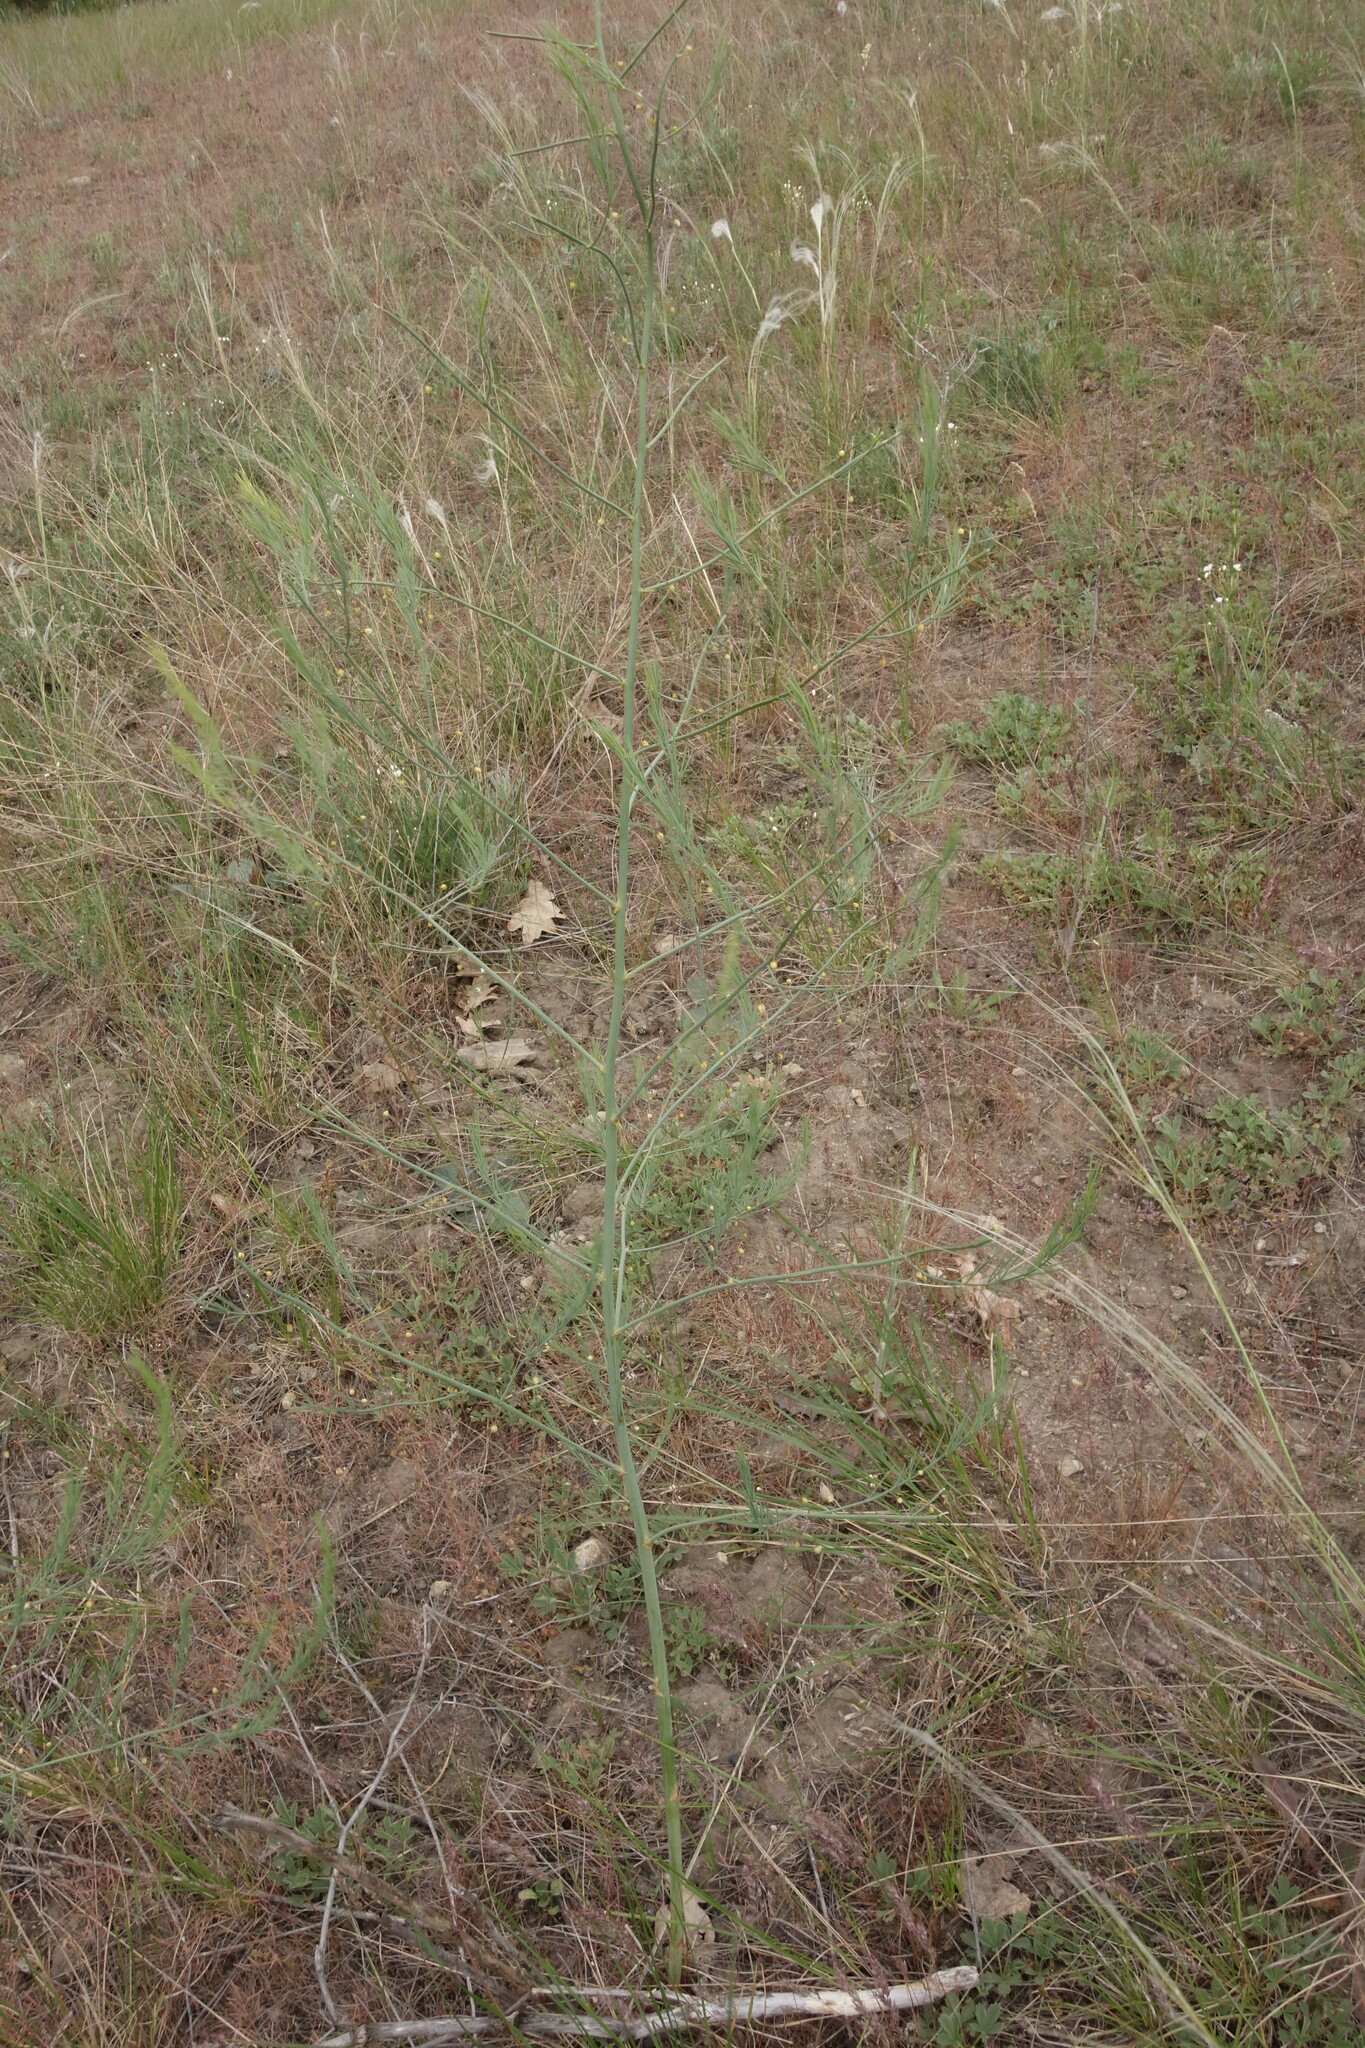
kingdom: Plantae
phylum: Tracheophyta
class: Liliopsida
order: Asparagales
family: Asparagaceae
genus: Asparagus
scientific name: Asparagus officinalis
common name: Garden asparagus
